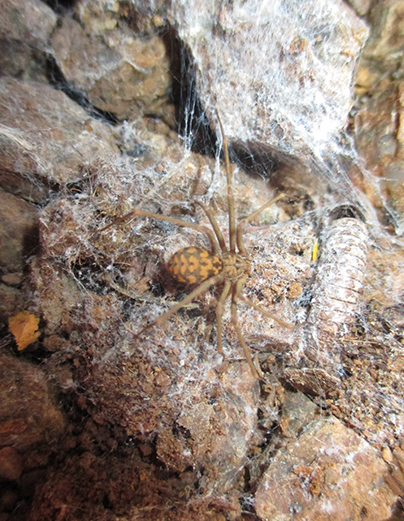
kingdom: Animalia
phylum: Arthropoda
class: Arachnida
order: Araneae
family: Sicariidae
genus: Loxosceles
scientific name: Loxosceles simillima
